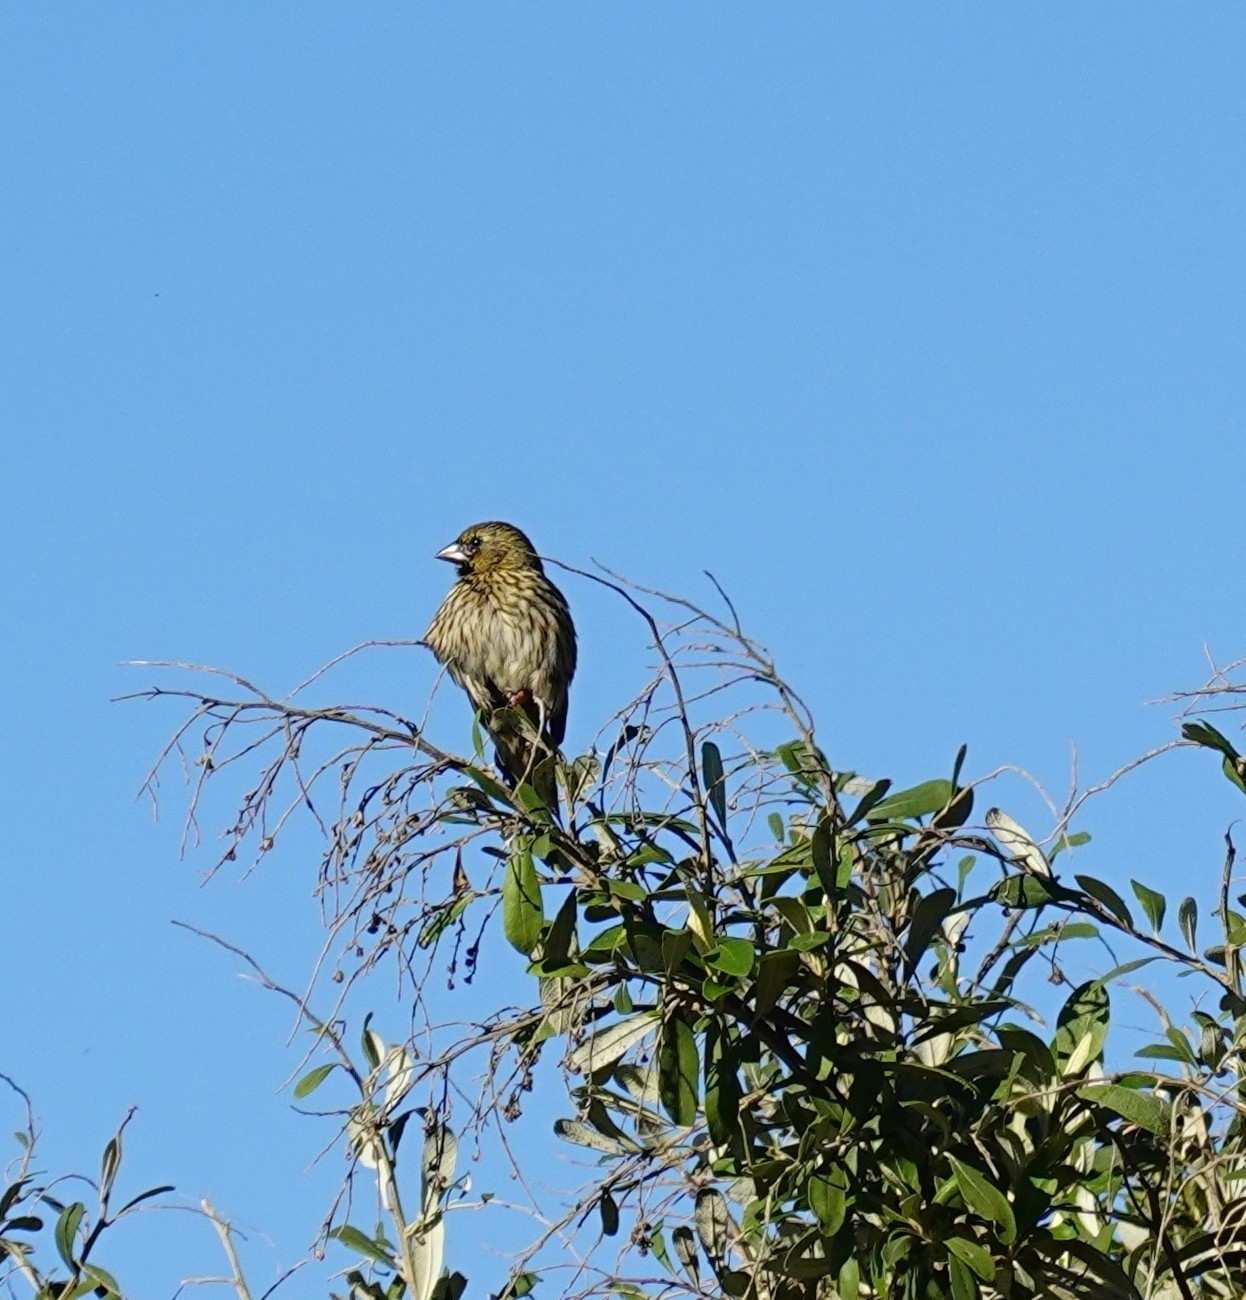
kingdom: Animalia
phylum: Chordata
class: Aves
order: Passeriformes
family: Ploceidae
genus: Euplectes
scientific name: Euplectes capensis
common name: Yellow bishop
